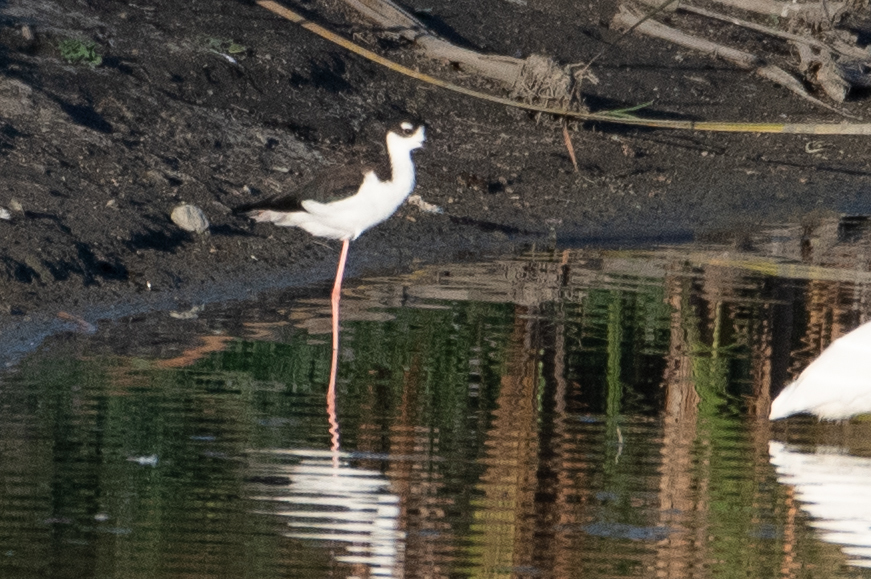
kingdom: Animalia
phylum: Chordata
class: Aves
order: Charadriiformes
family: Recurvirostridae
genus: Himantopus
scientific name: Himantopus mexicanus
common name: Black-necked stilt
